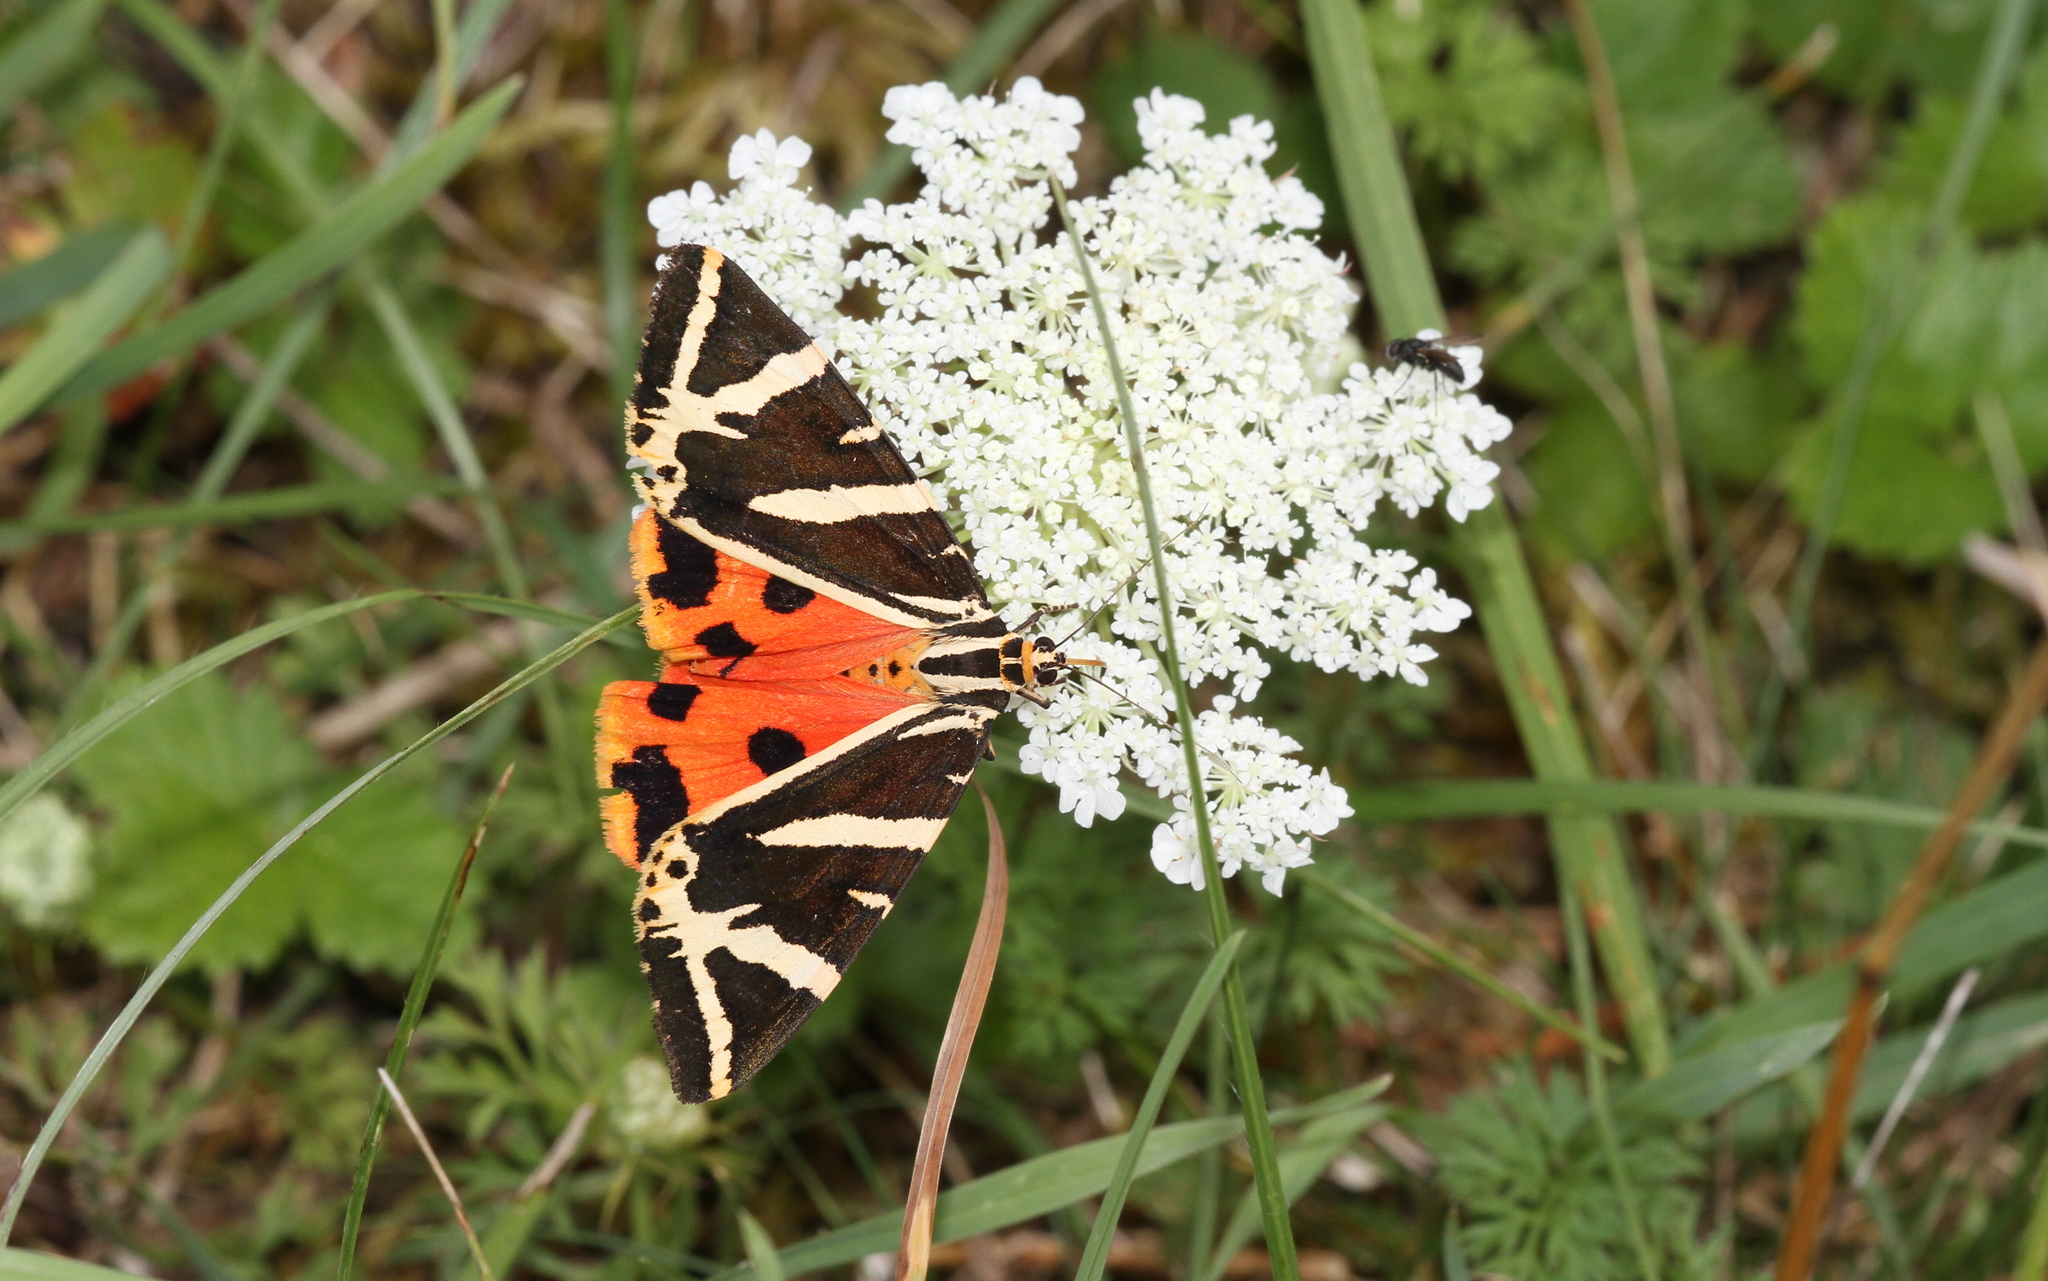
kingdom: Animalia
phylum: Arthropoda
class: Insecta
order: Lepidoptera
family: Erebidae
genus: Euplagia
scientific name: Euplagia quadripunctaria
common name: Jersey tiger
